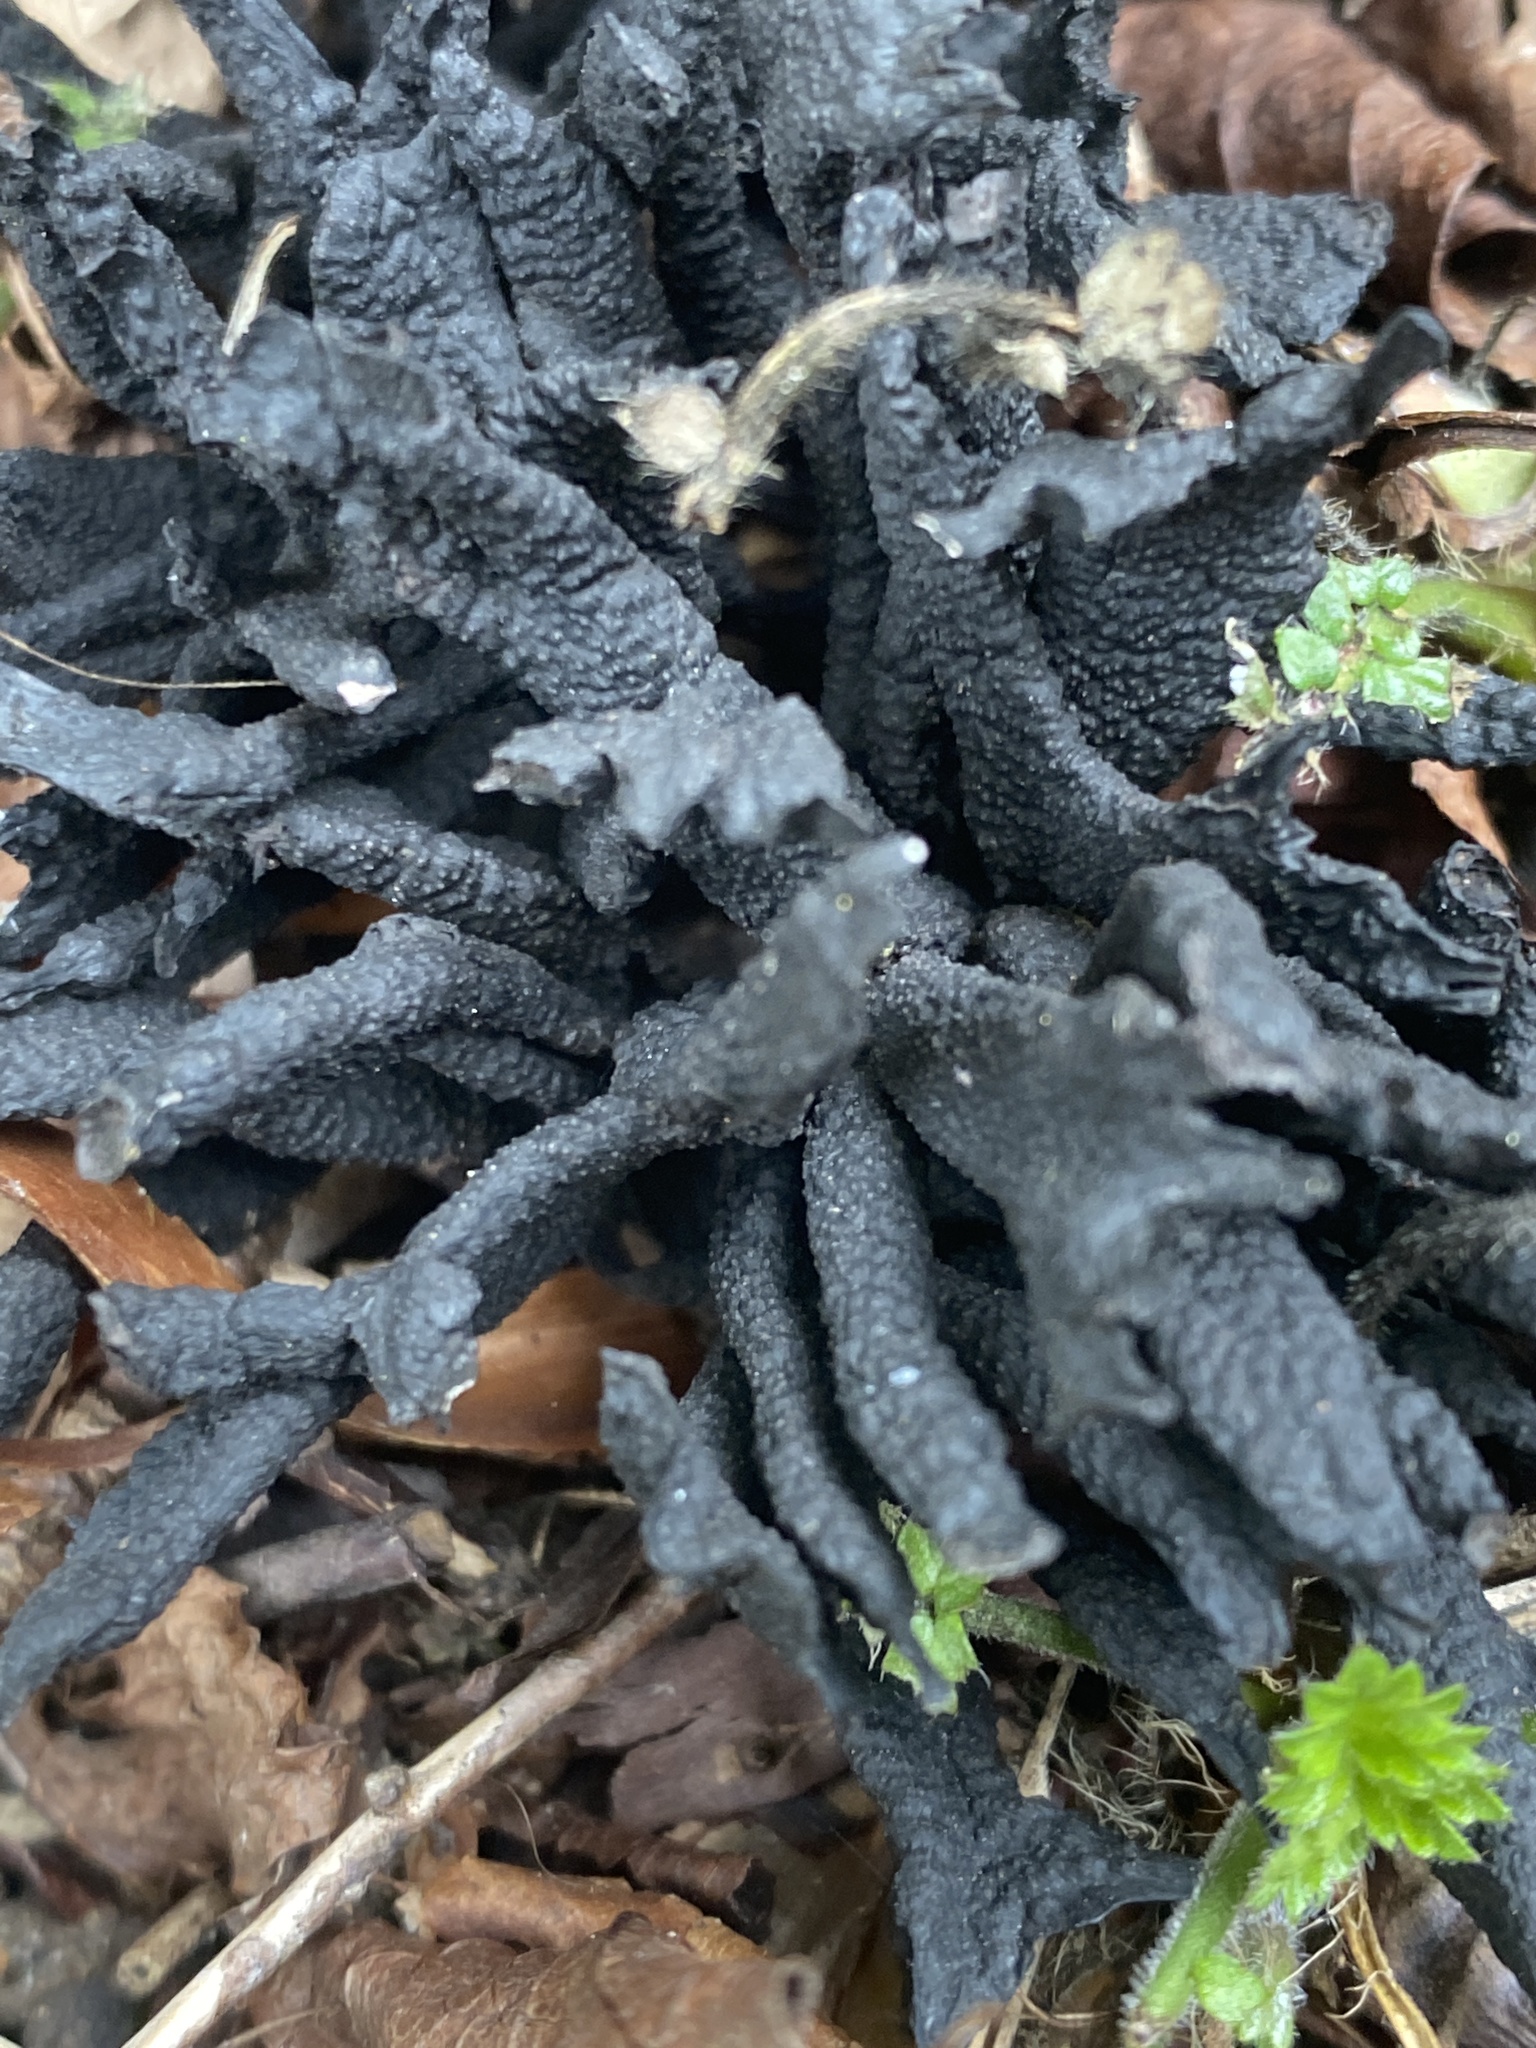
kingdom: Fungi
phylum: Ascomycota
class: Sordariomycetes
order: Xylariales
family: Xylariaceae
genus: Xylaria
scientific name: Xylaria hypoxylon
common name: Candle-snuff fungus
